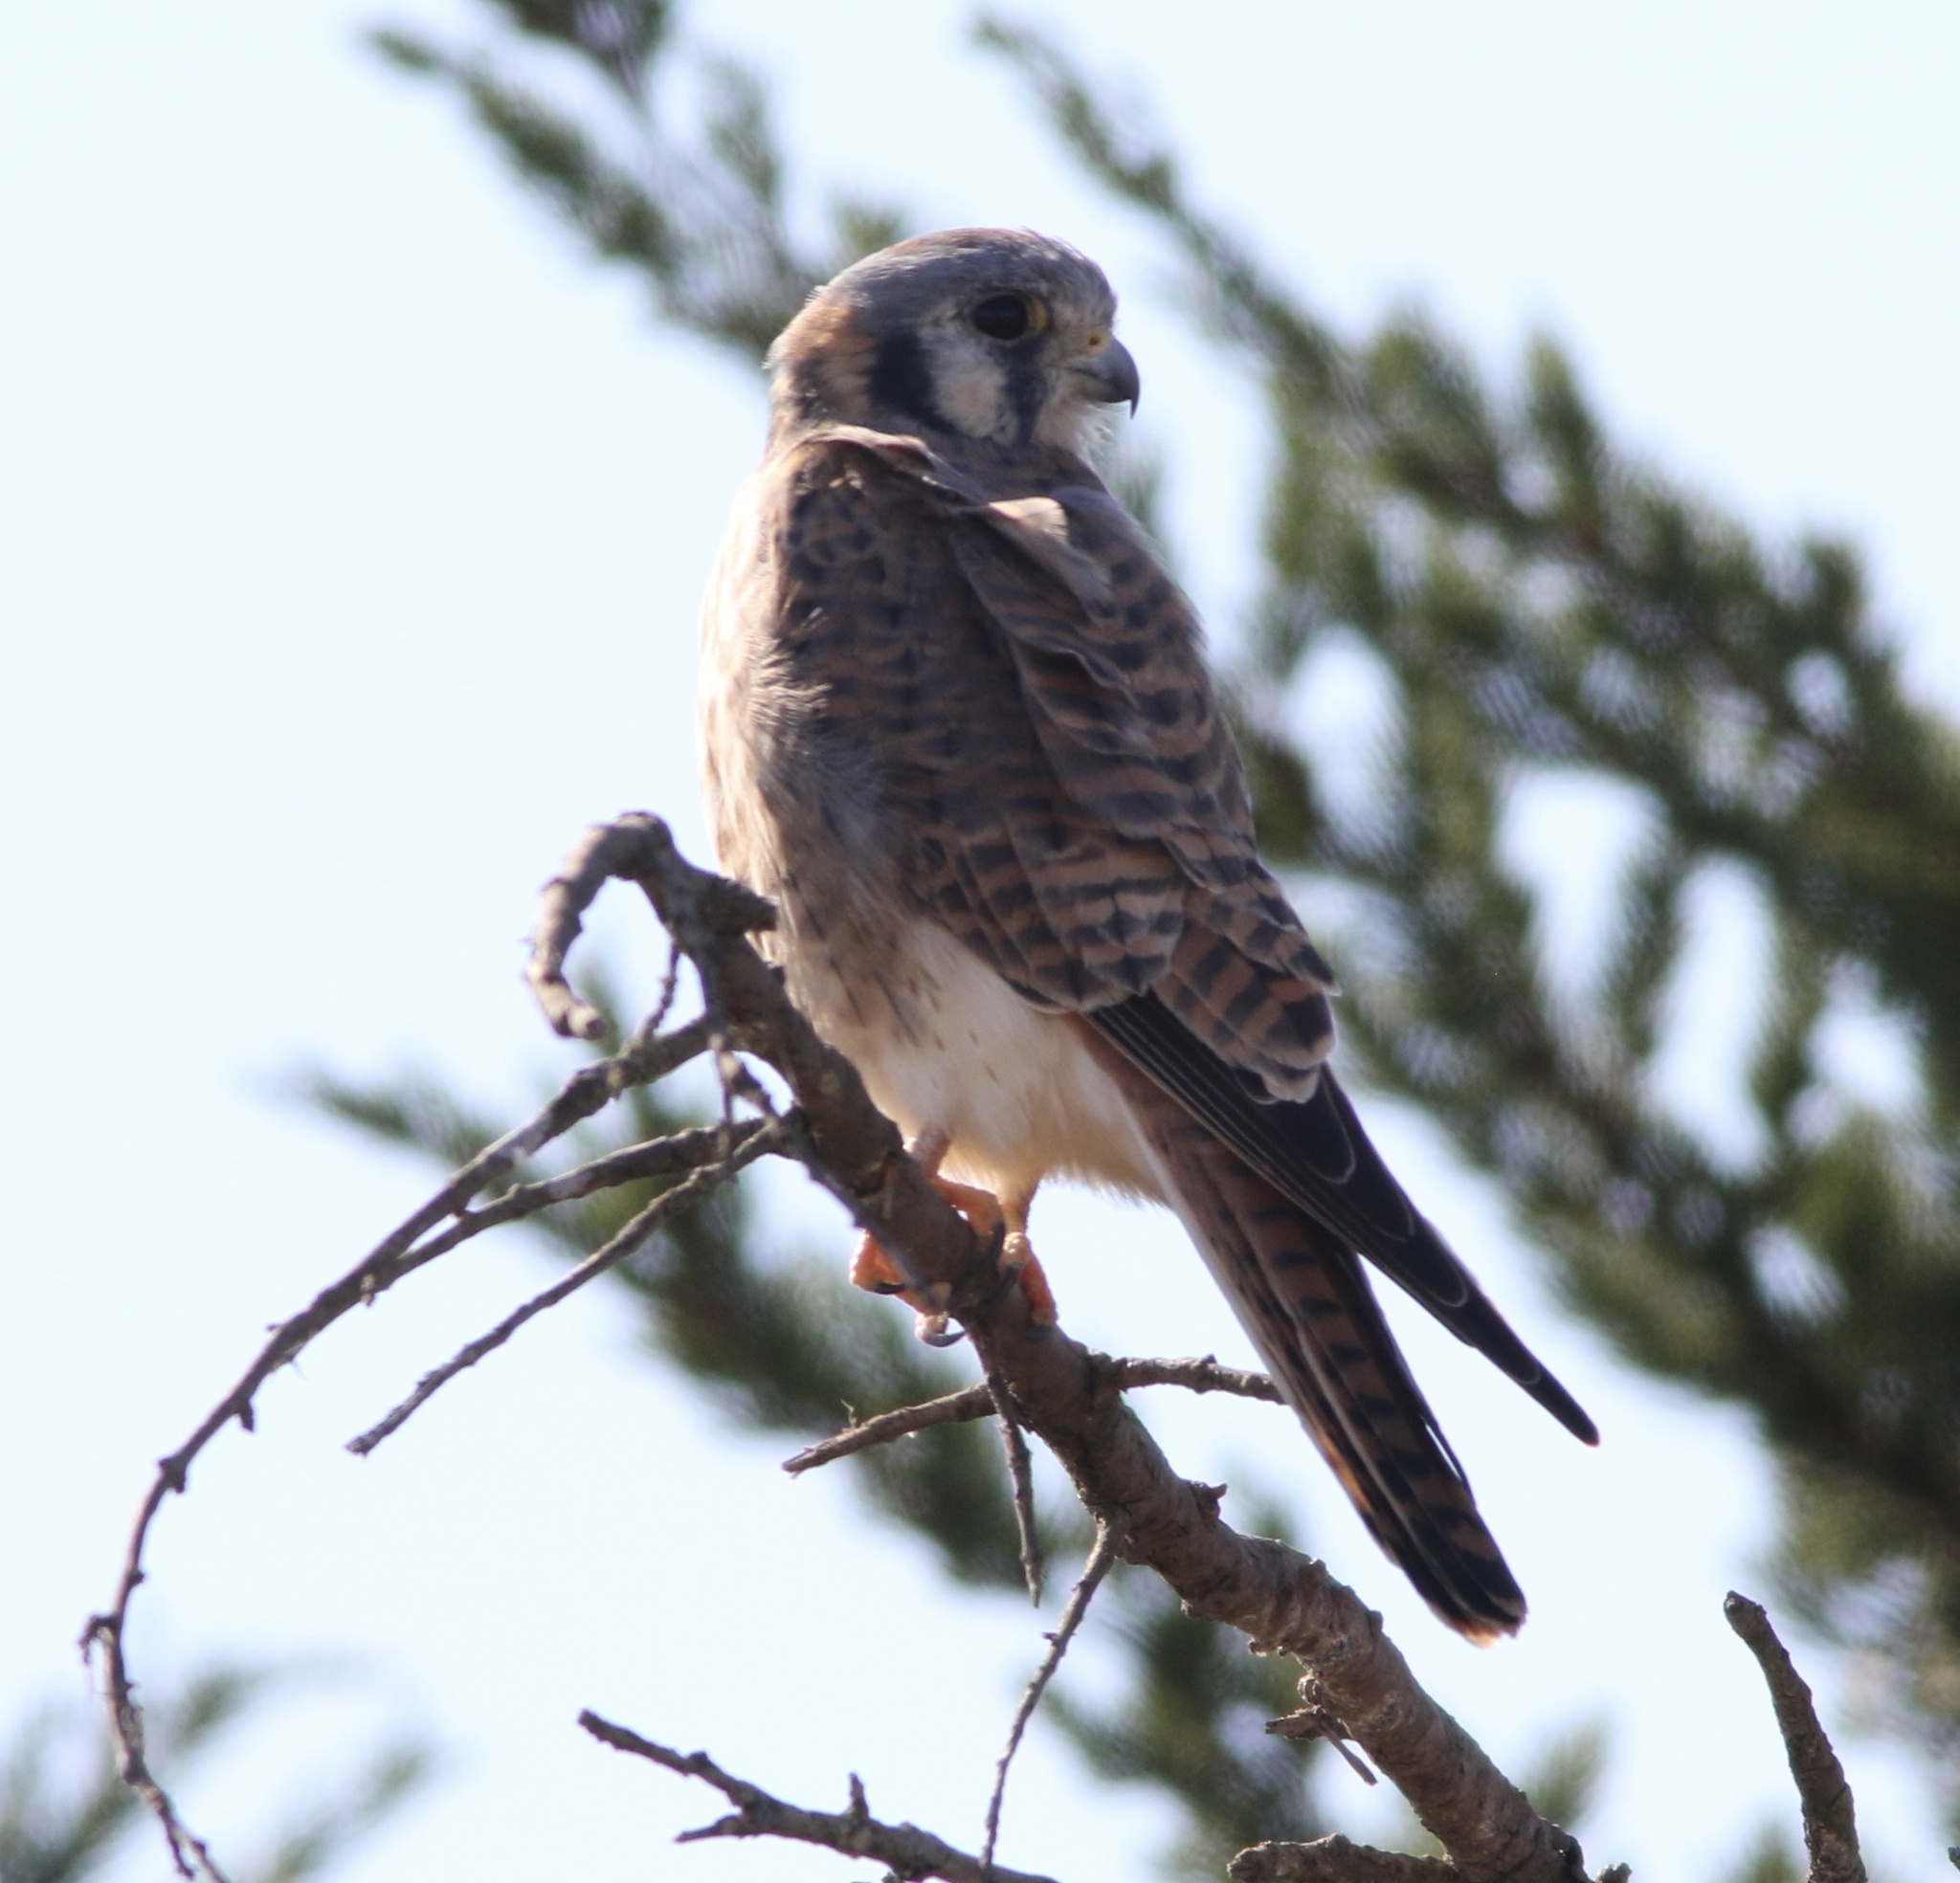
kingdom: Animalia
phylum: Chordata
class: Aves
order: Falconiformes
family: Falconidae
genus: Falco
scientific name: Falco sparverius
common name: American kestrel
